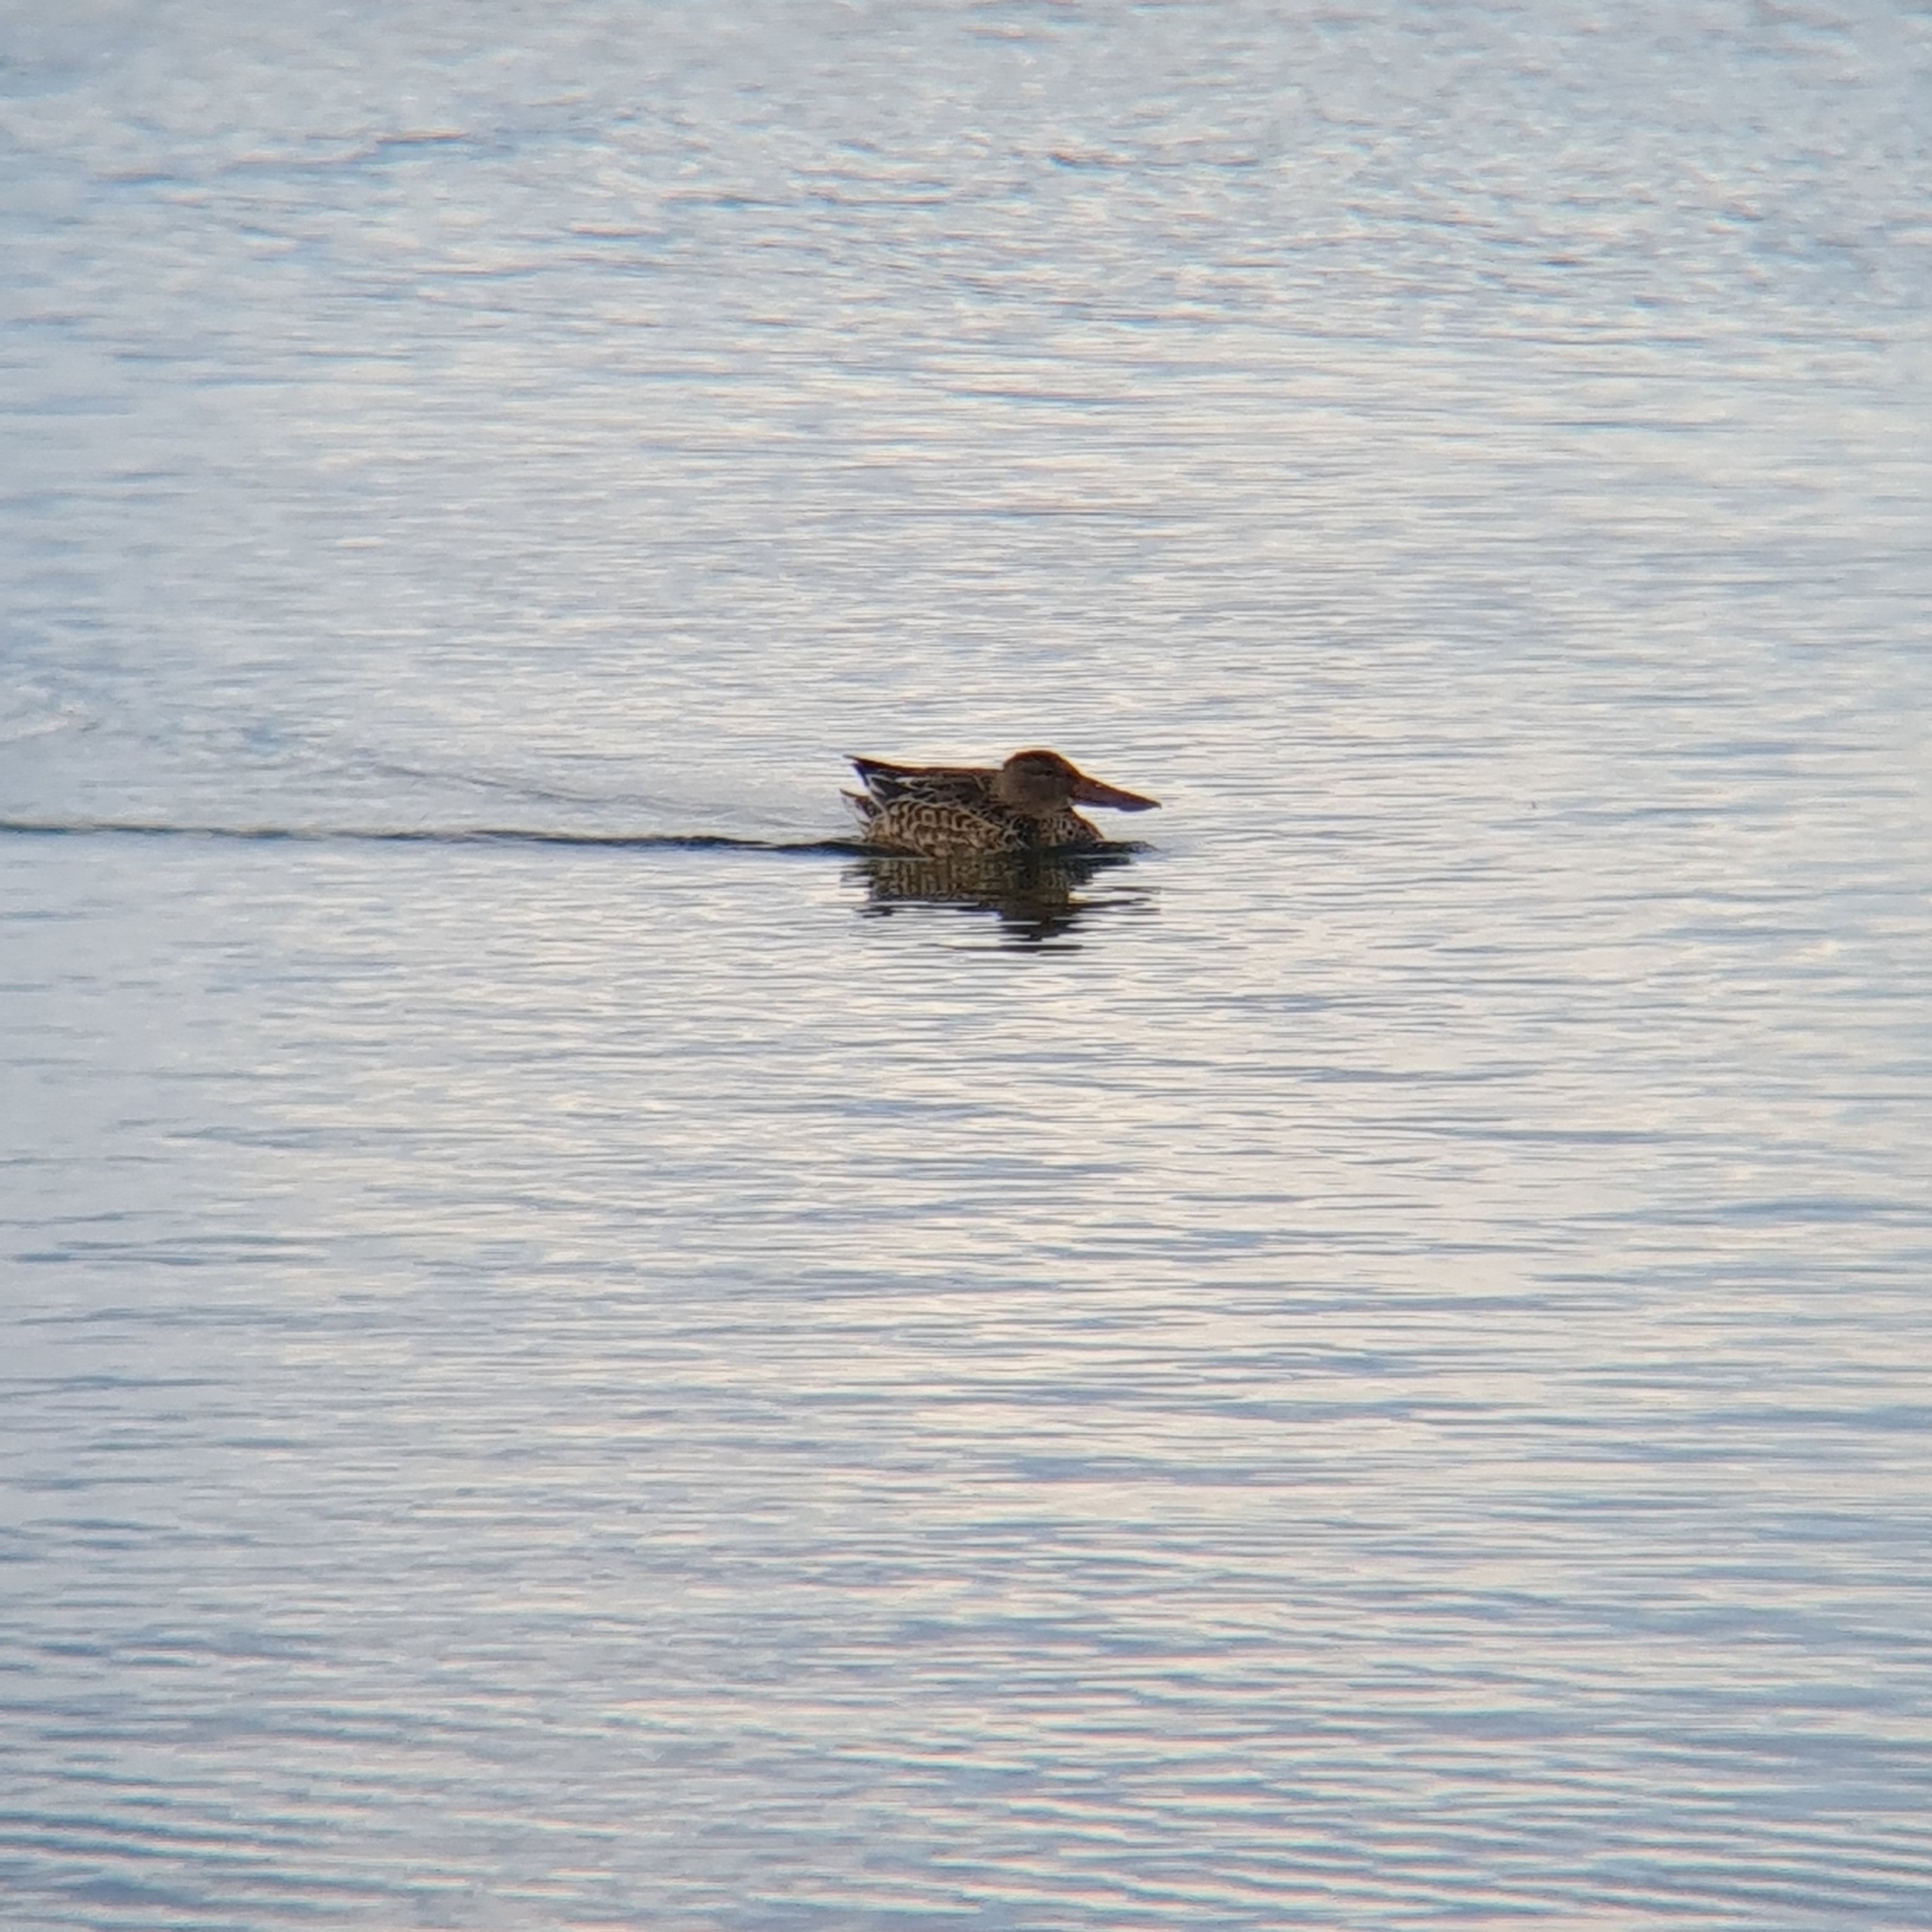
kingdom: Animalia
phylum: Chordata
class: Aves
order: Anseriformes
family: Anatidae
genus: Spatula
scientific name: Spatula clypeata
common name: Northern shoveler
